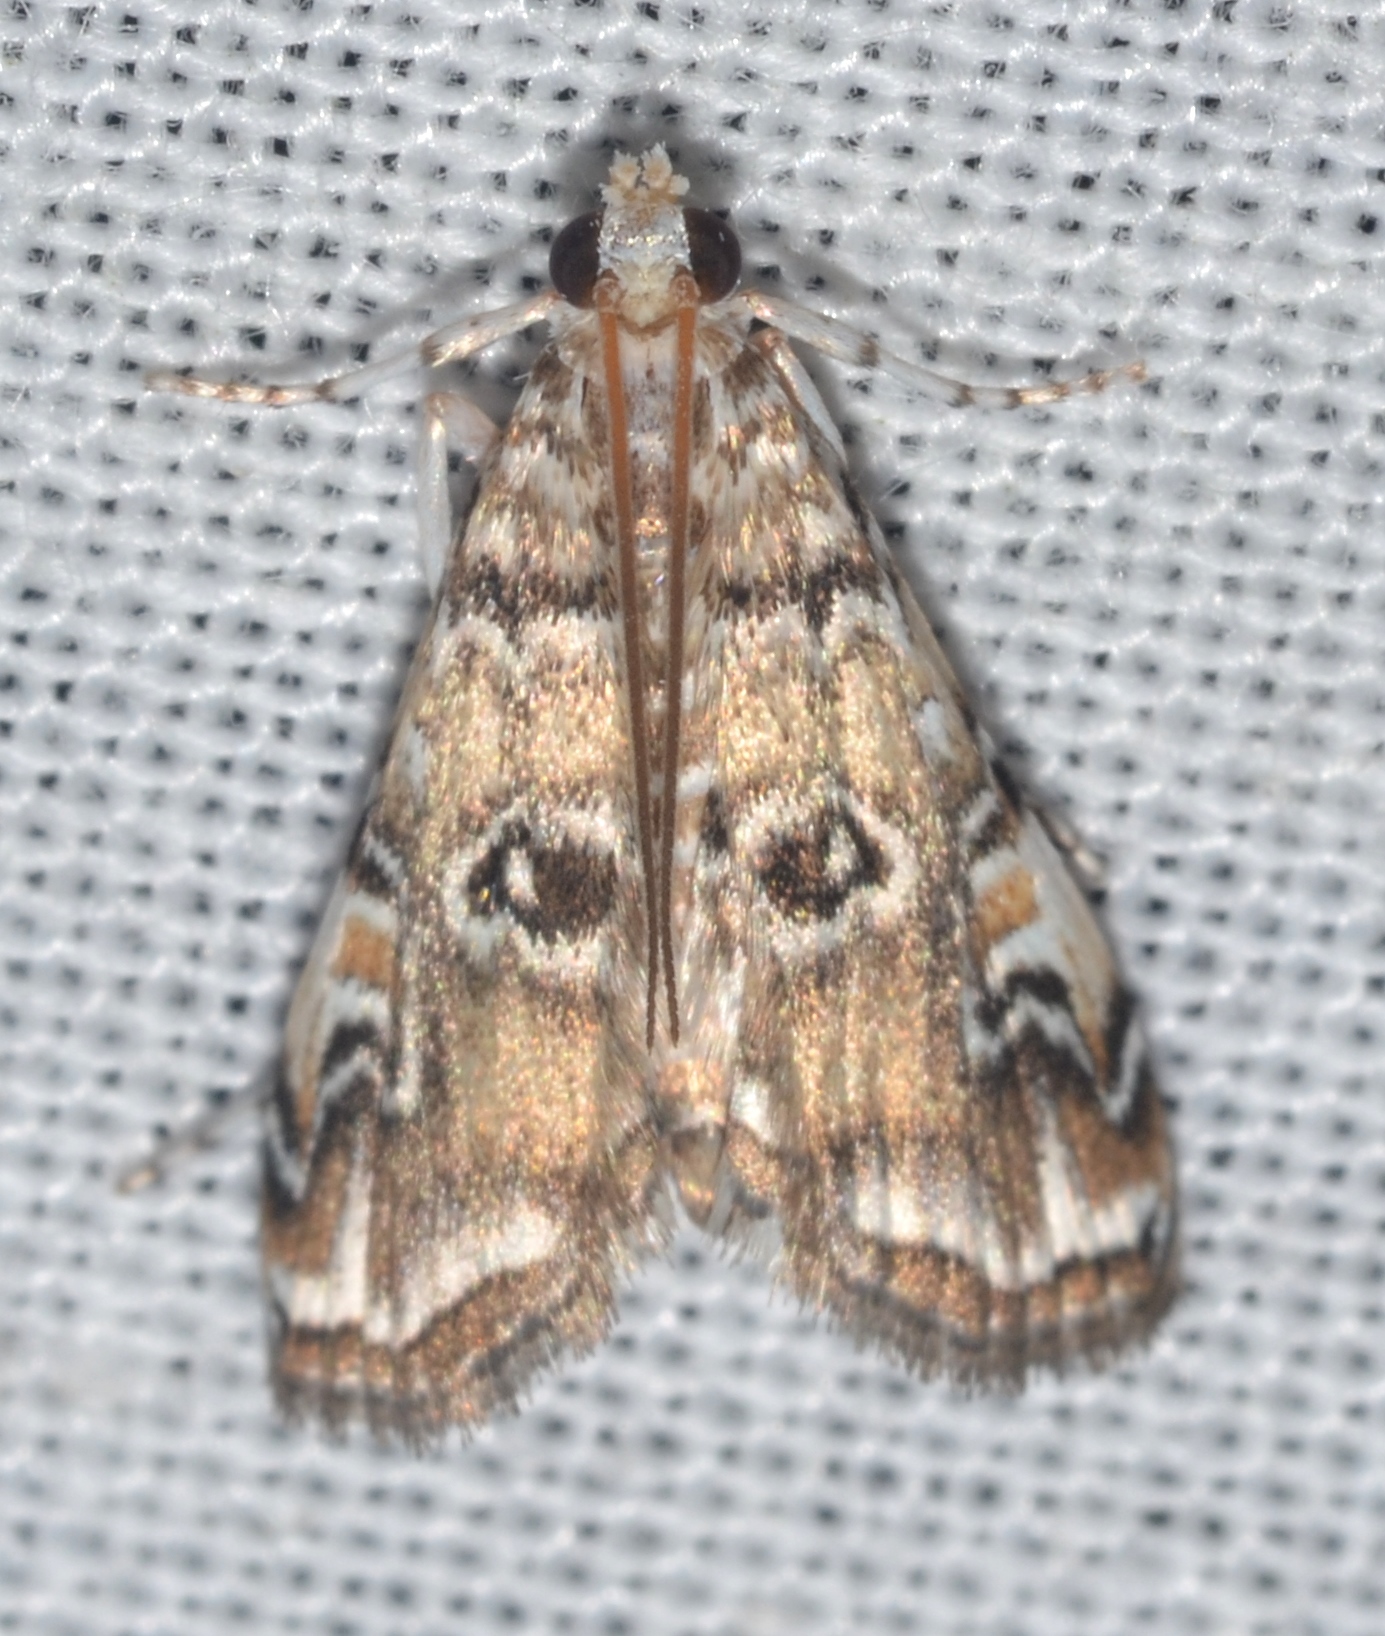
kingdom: Animalia
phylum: Arthropoda
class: Insecta
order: Lepidoptera
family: Crambidae
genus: Elophila
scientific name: Elophila gyralis
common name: Waterlily borer moth
